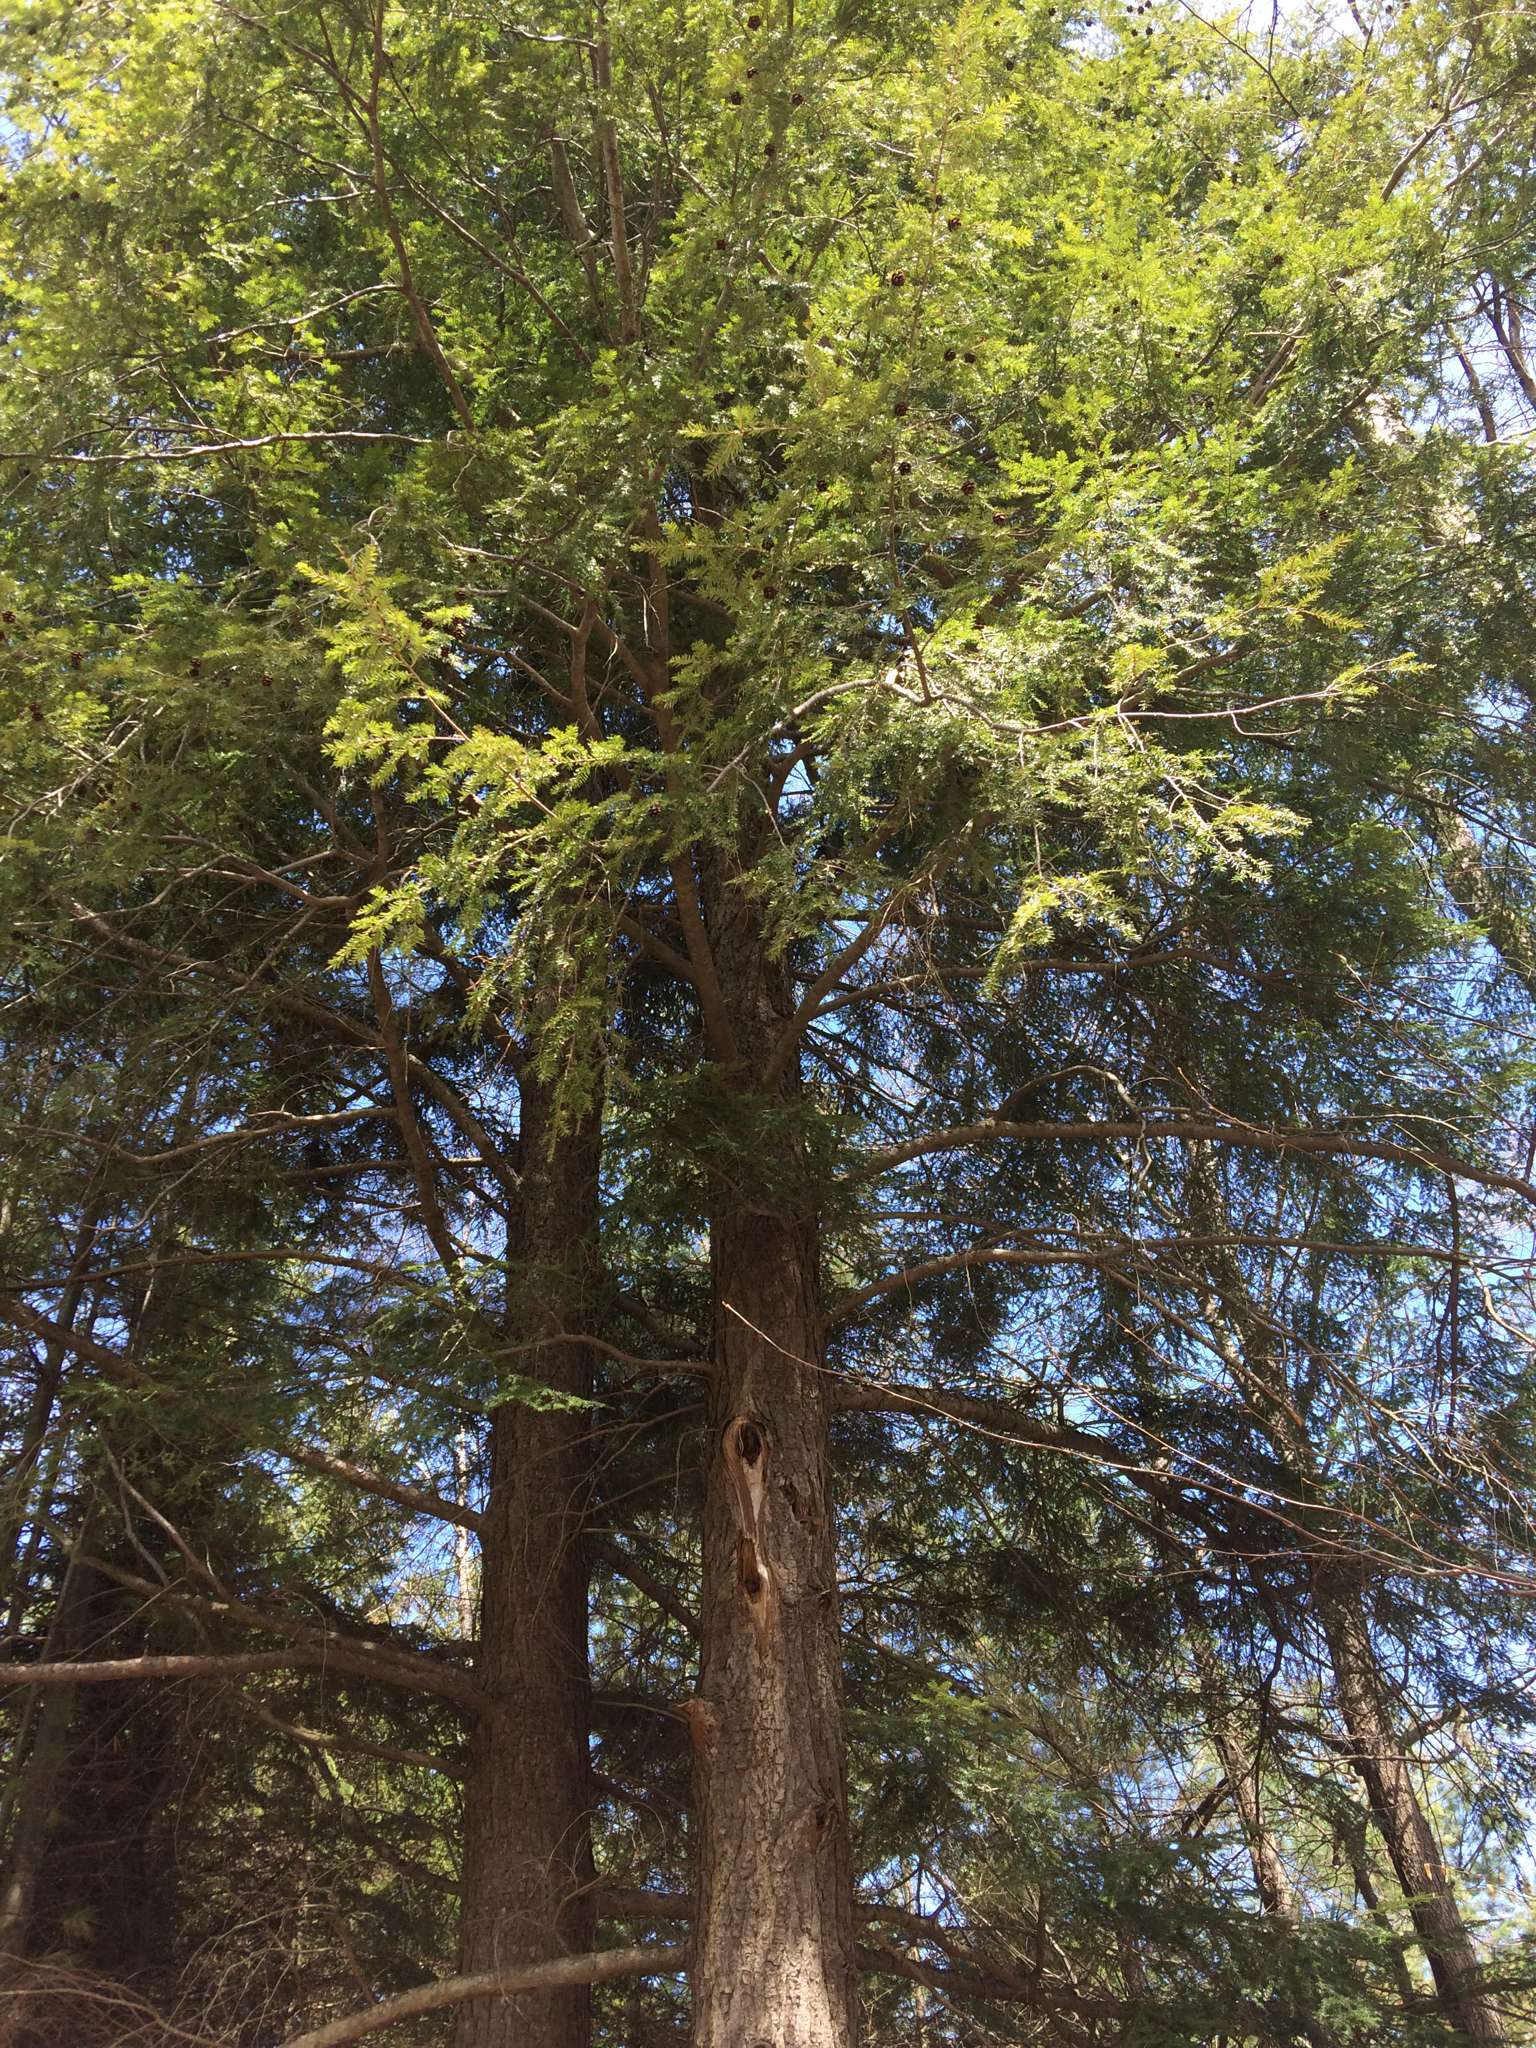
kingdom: Plantae
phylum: Tracheophyta
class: Pinopsida
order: Pinales
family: Pinaceae
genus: Tsuga
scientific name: Tsuga canadensis
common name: Eastern hemlock
